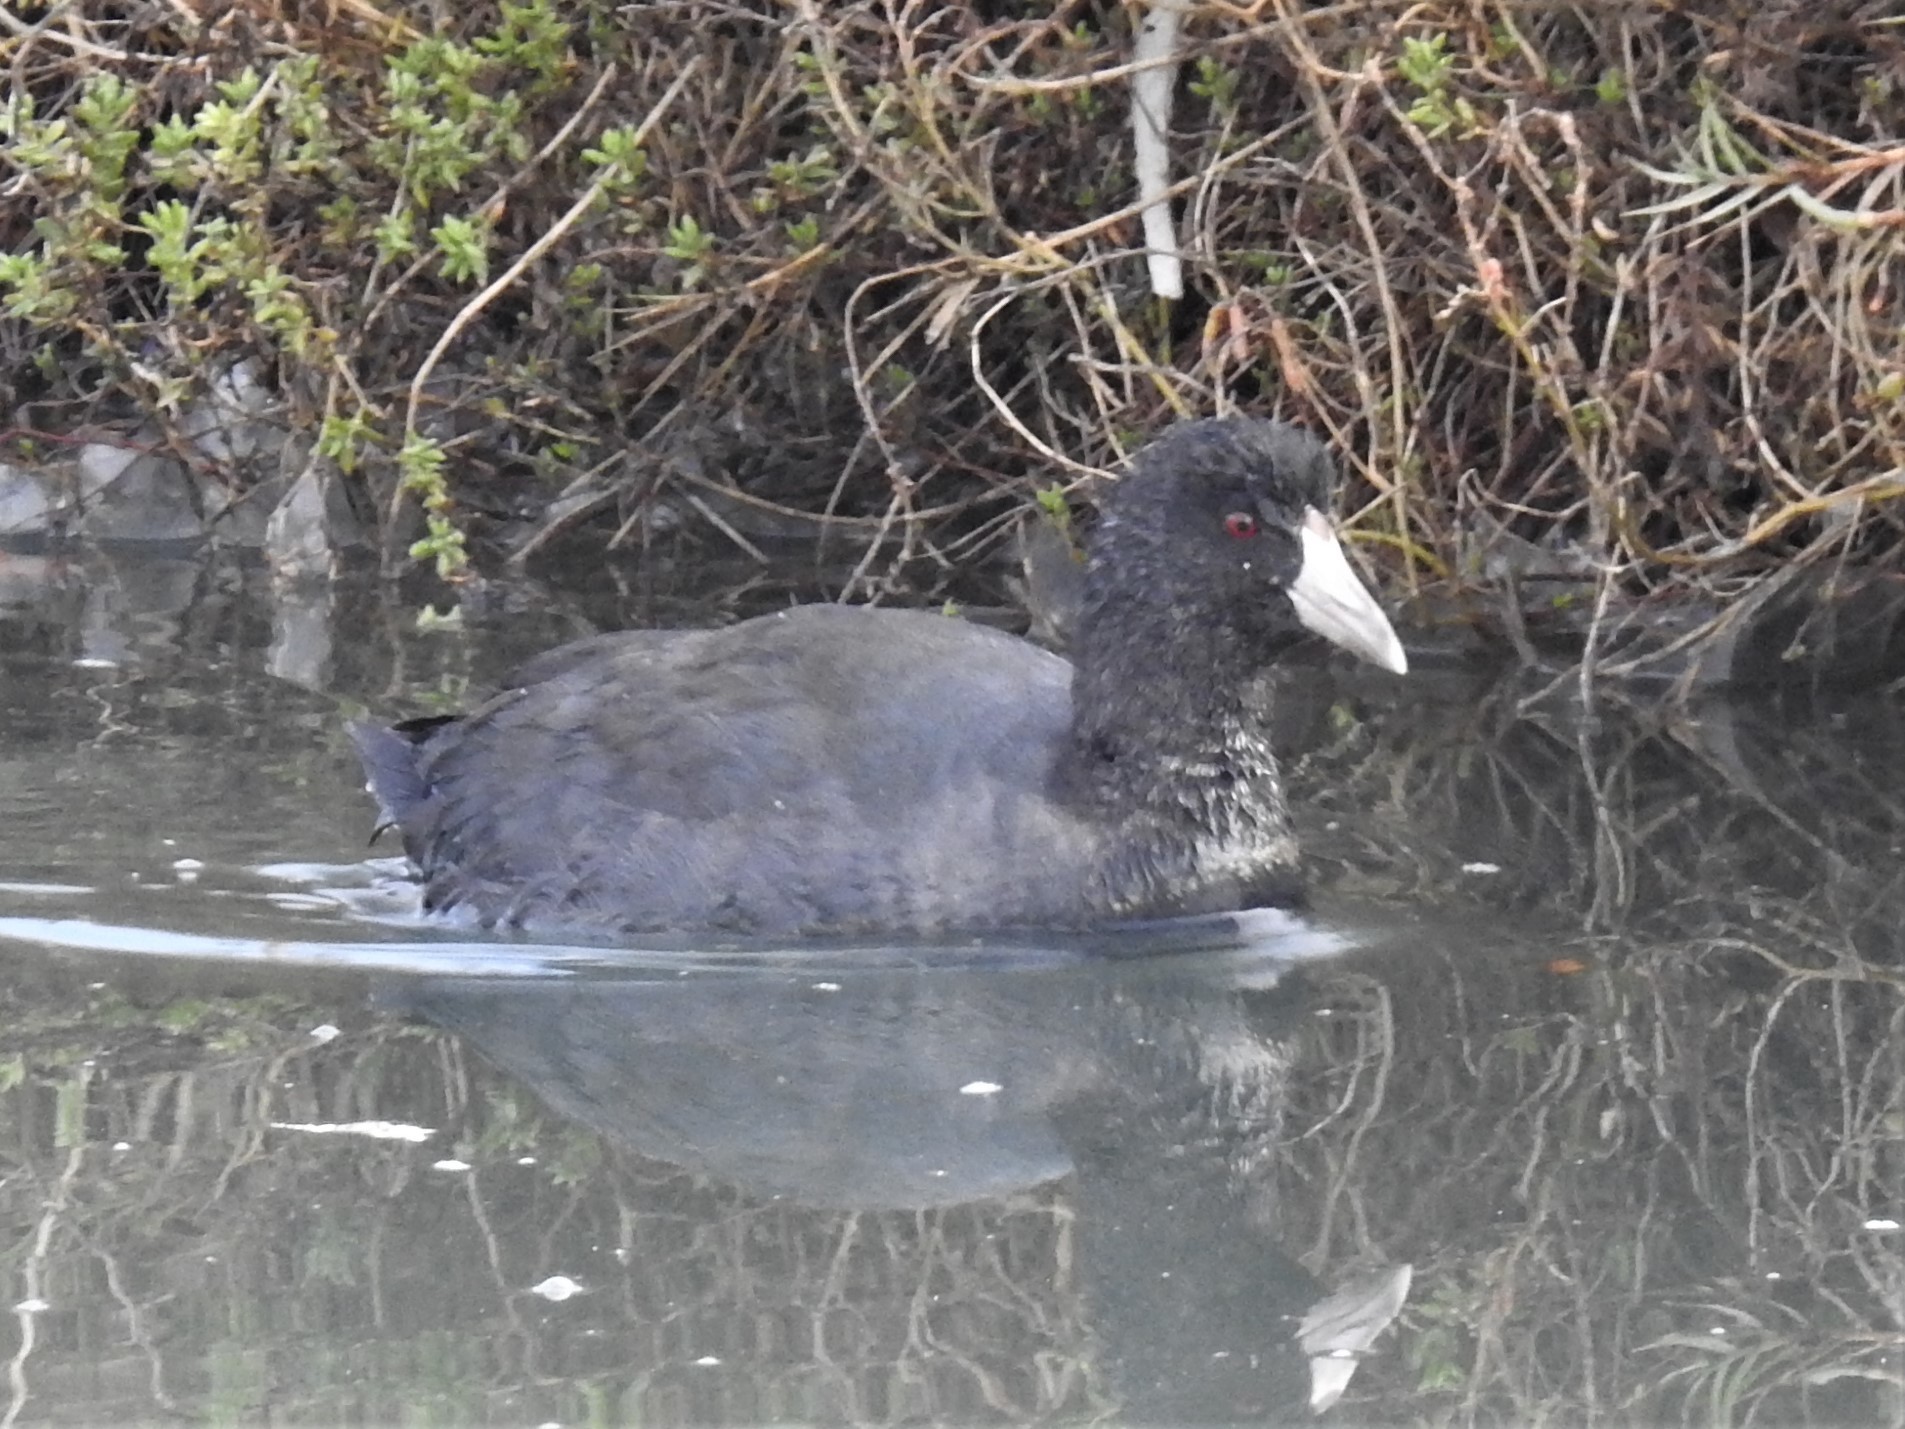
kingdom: Animalia
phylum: Chordata
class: Aves
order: Gruiformes
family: Rallidae
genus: Fulica
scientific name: Fulica americana
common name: American coot
